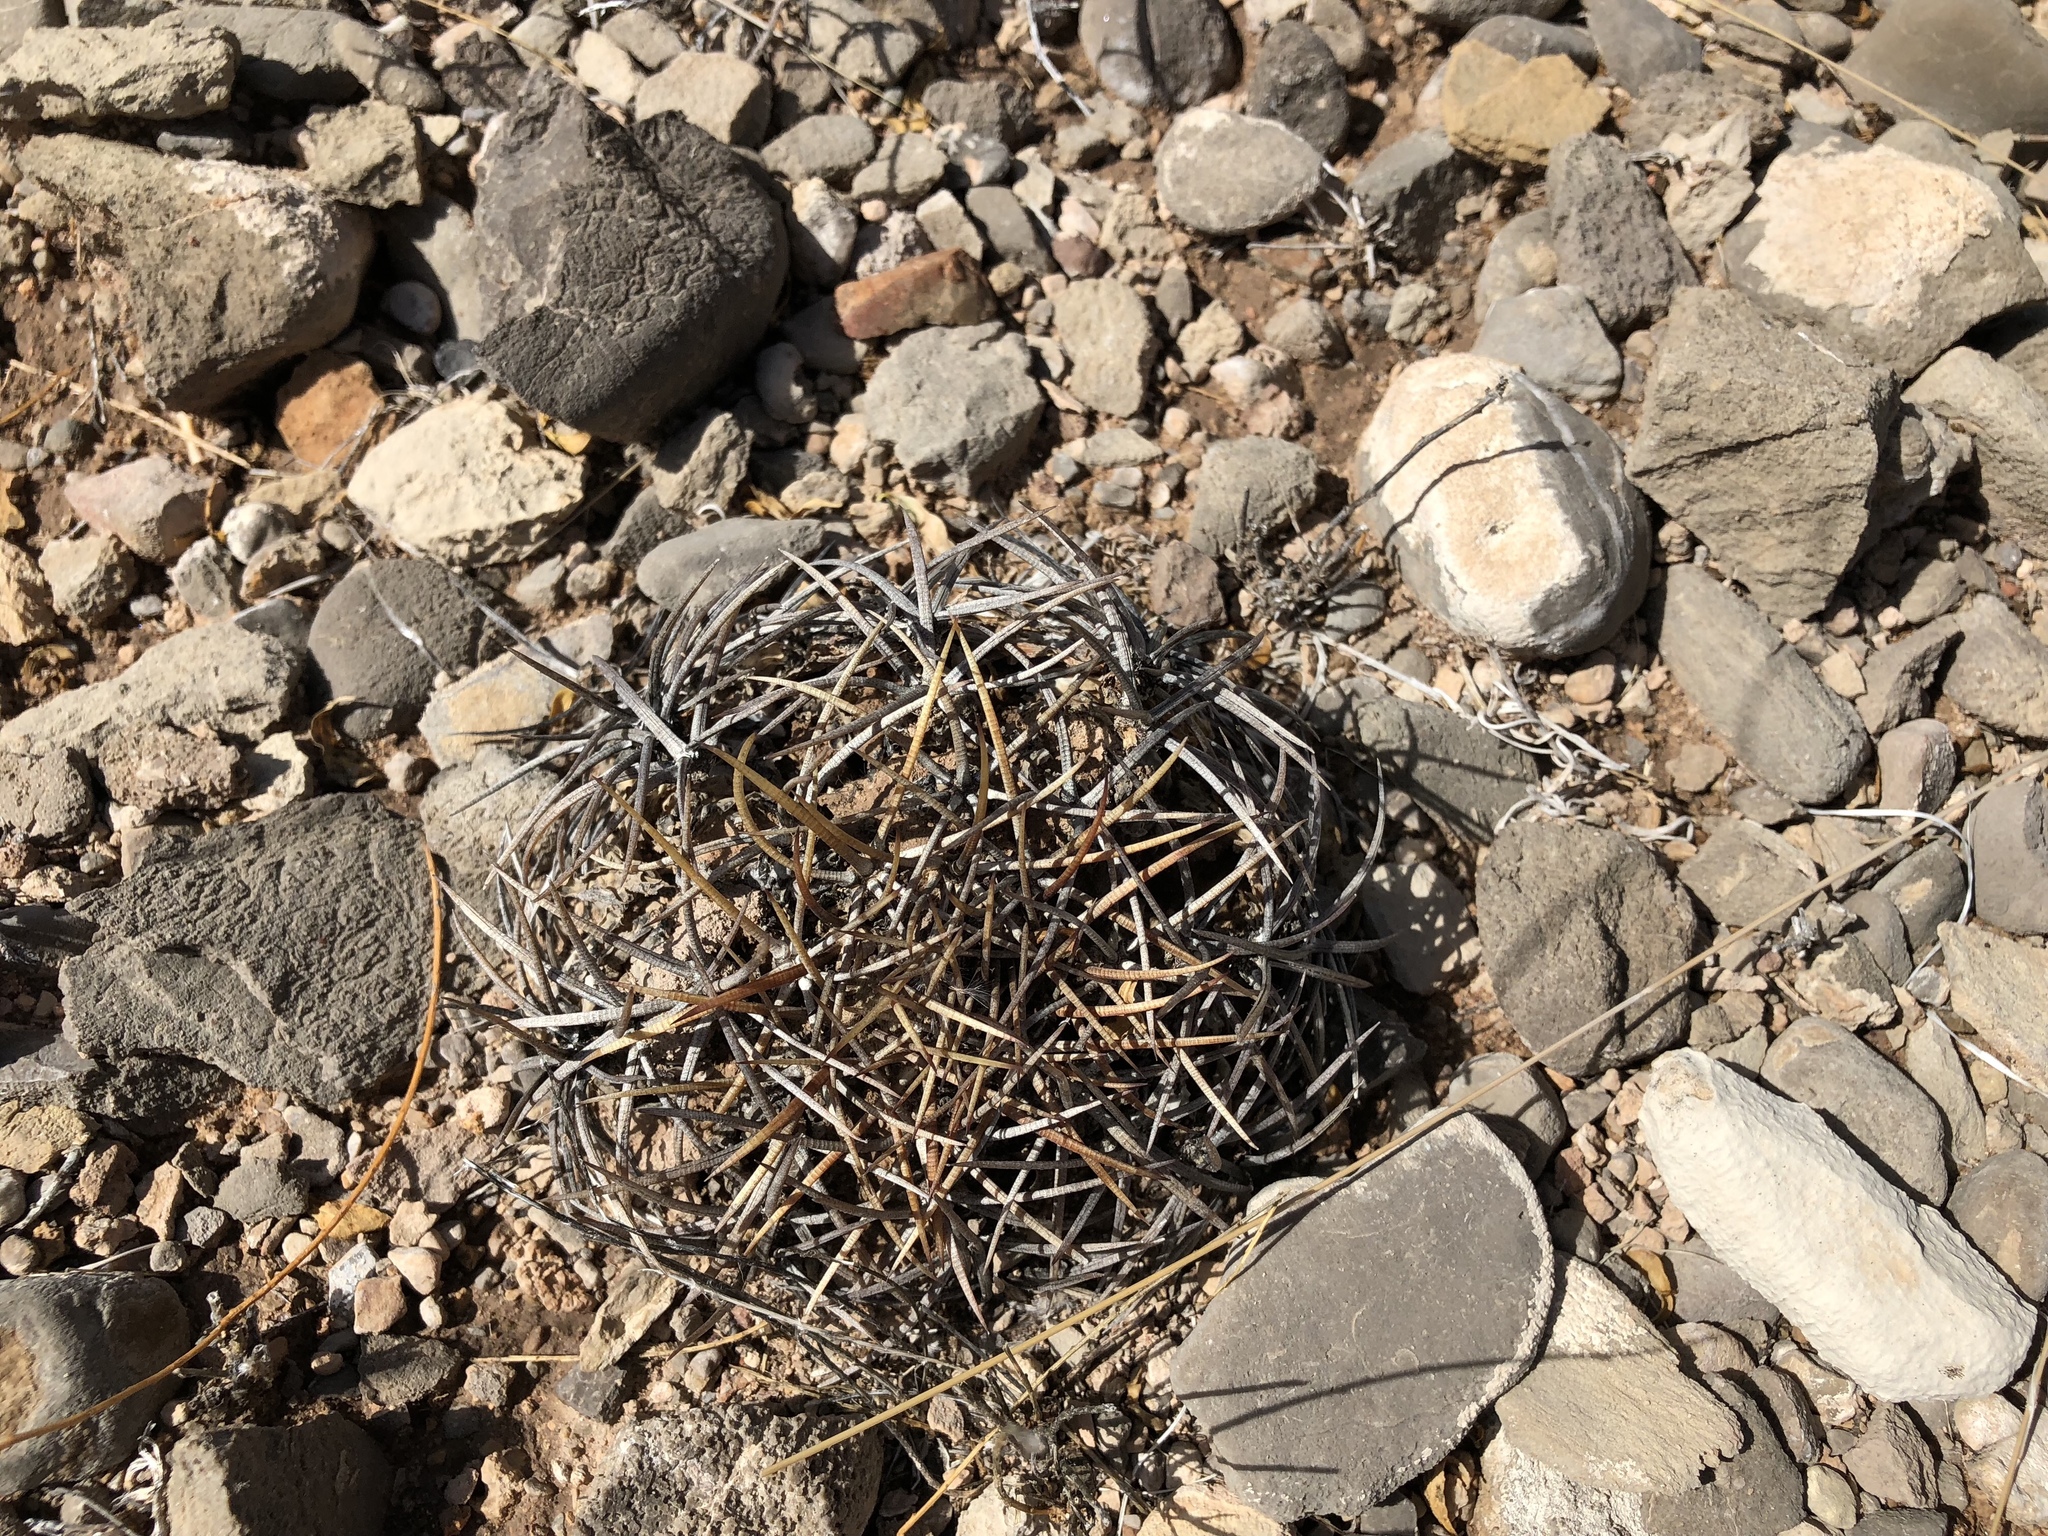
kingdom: Plantae
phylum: Tracheophyta
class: Magnoliopsida
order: Caryophyllales
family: Cactaceae
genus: Echinocactus
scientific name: Echinocactus horizonthalonius
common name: Devilshead
